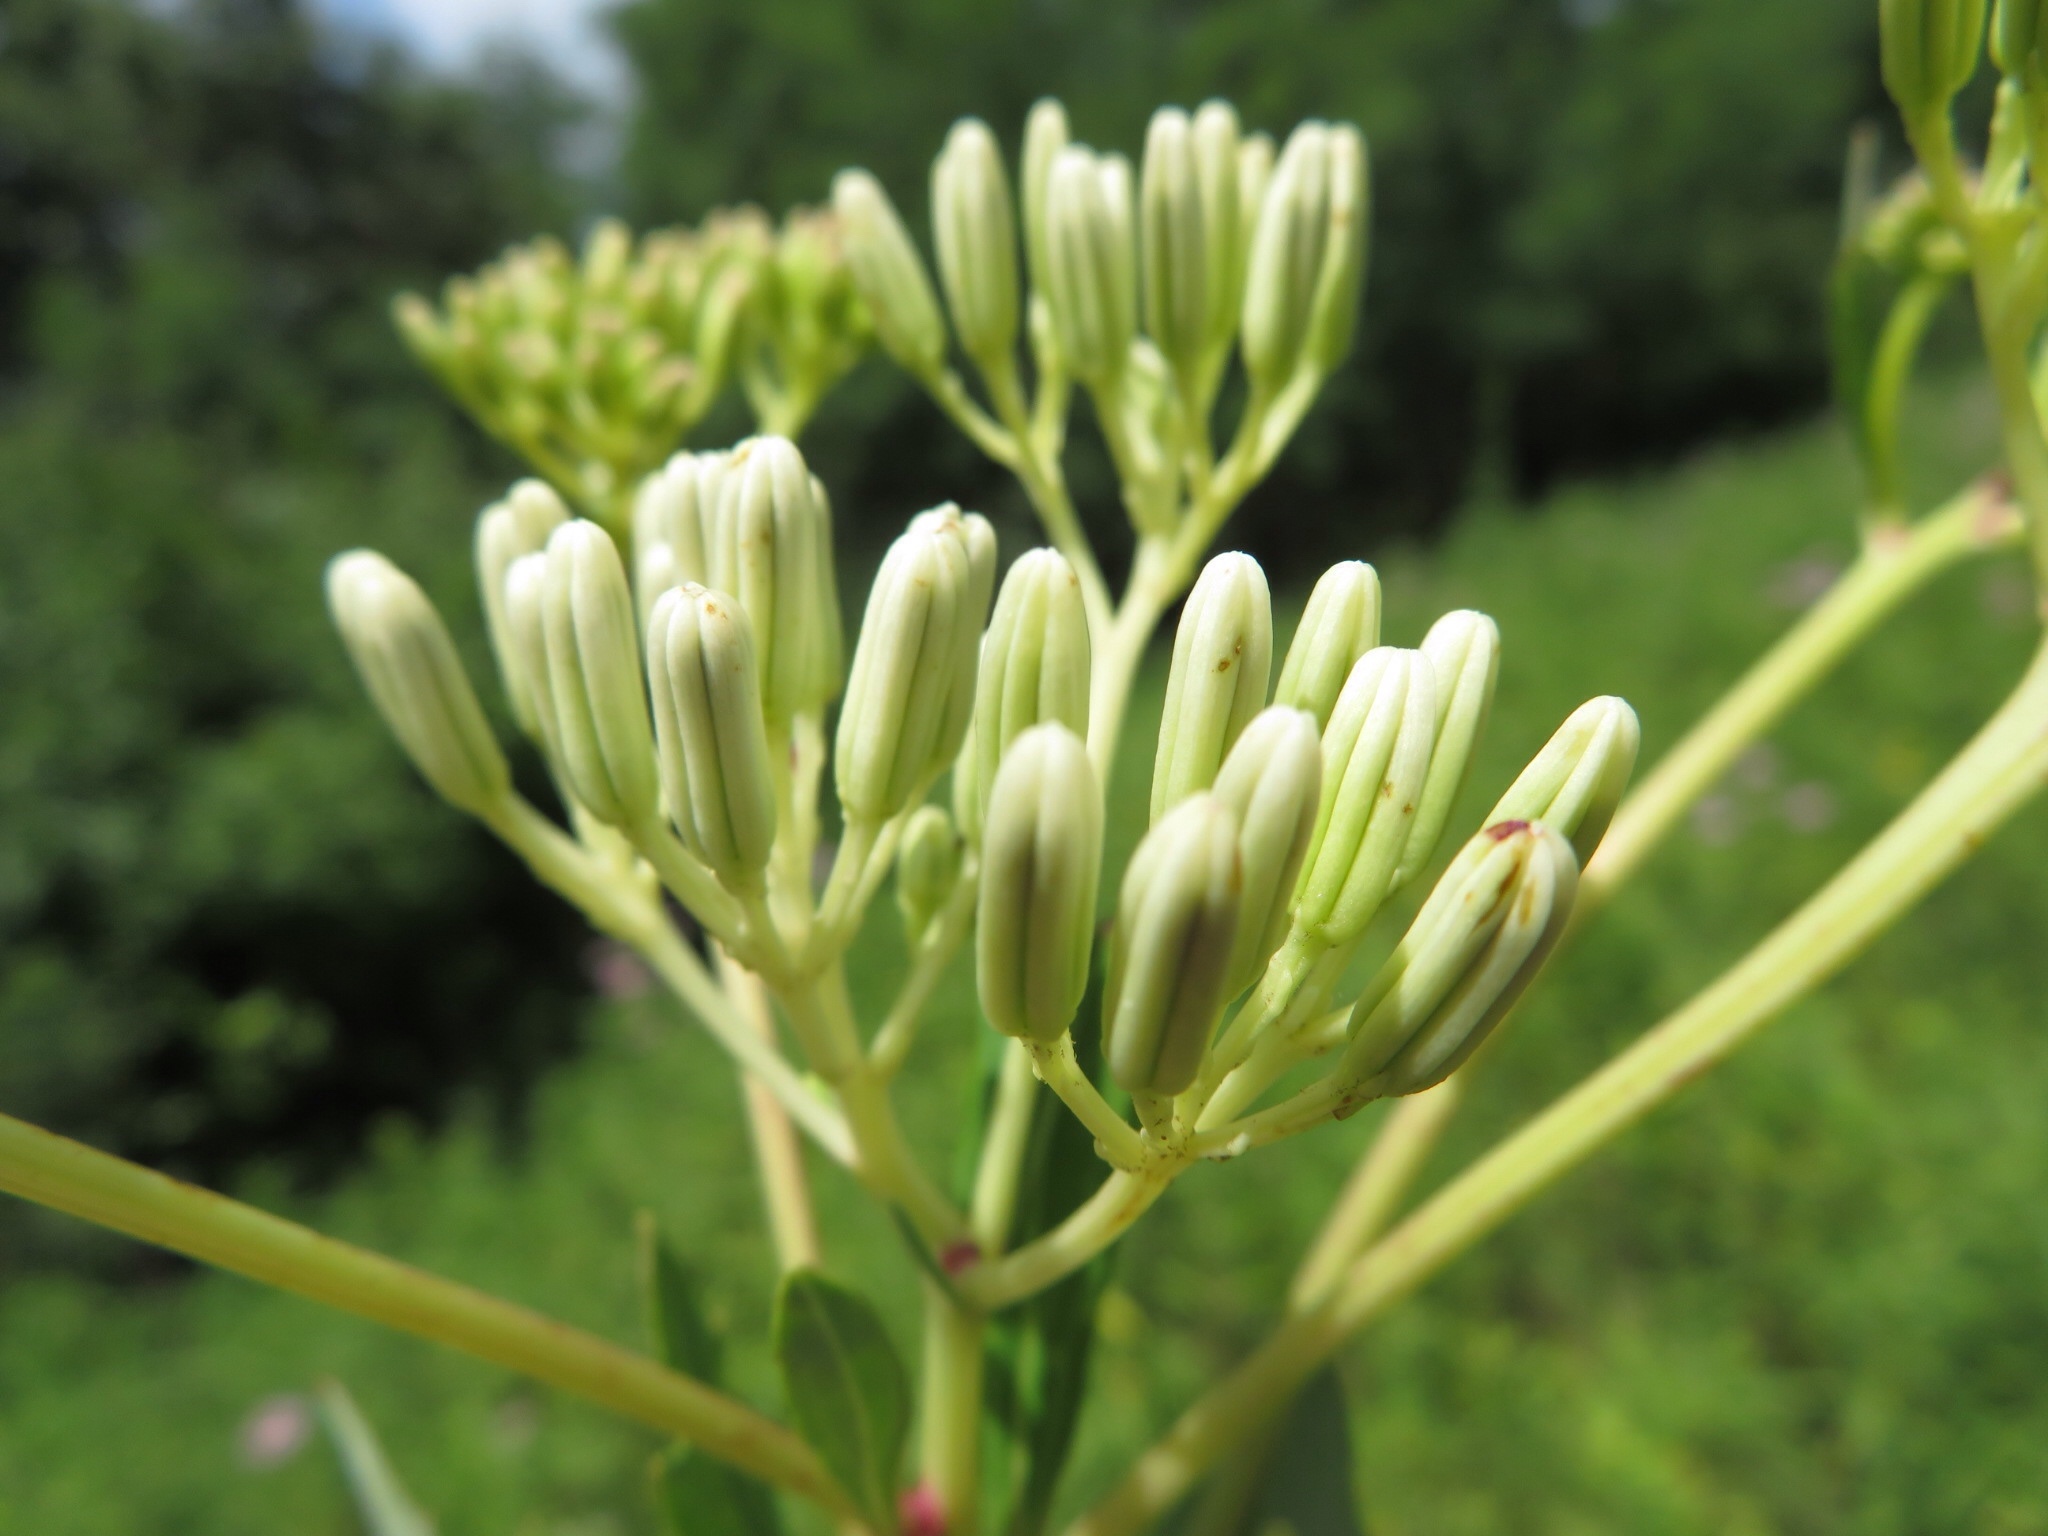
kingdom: Plantae
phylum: Tracheophyta
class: Magnoliopsida
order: Asterales
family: Asteraceae
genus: Arnoglossum
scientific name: Arnoglossum atriplicifolium
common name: Pale indian-plantain
